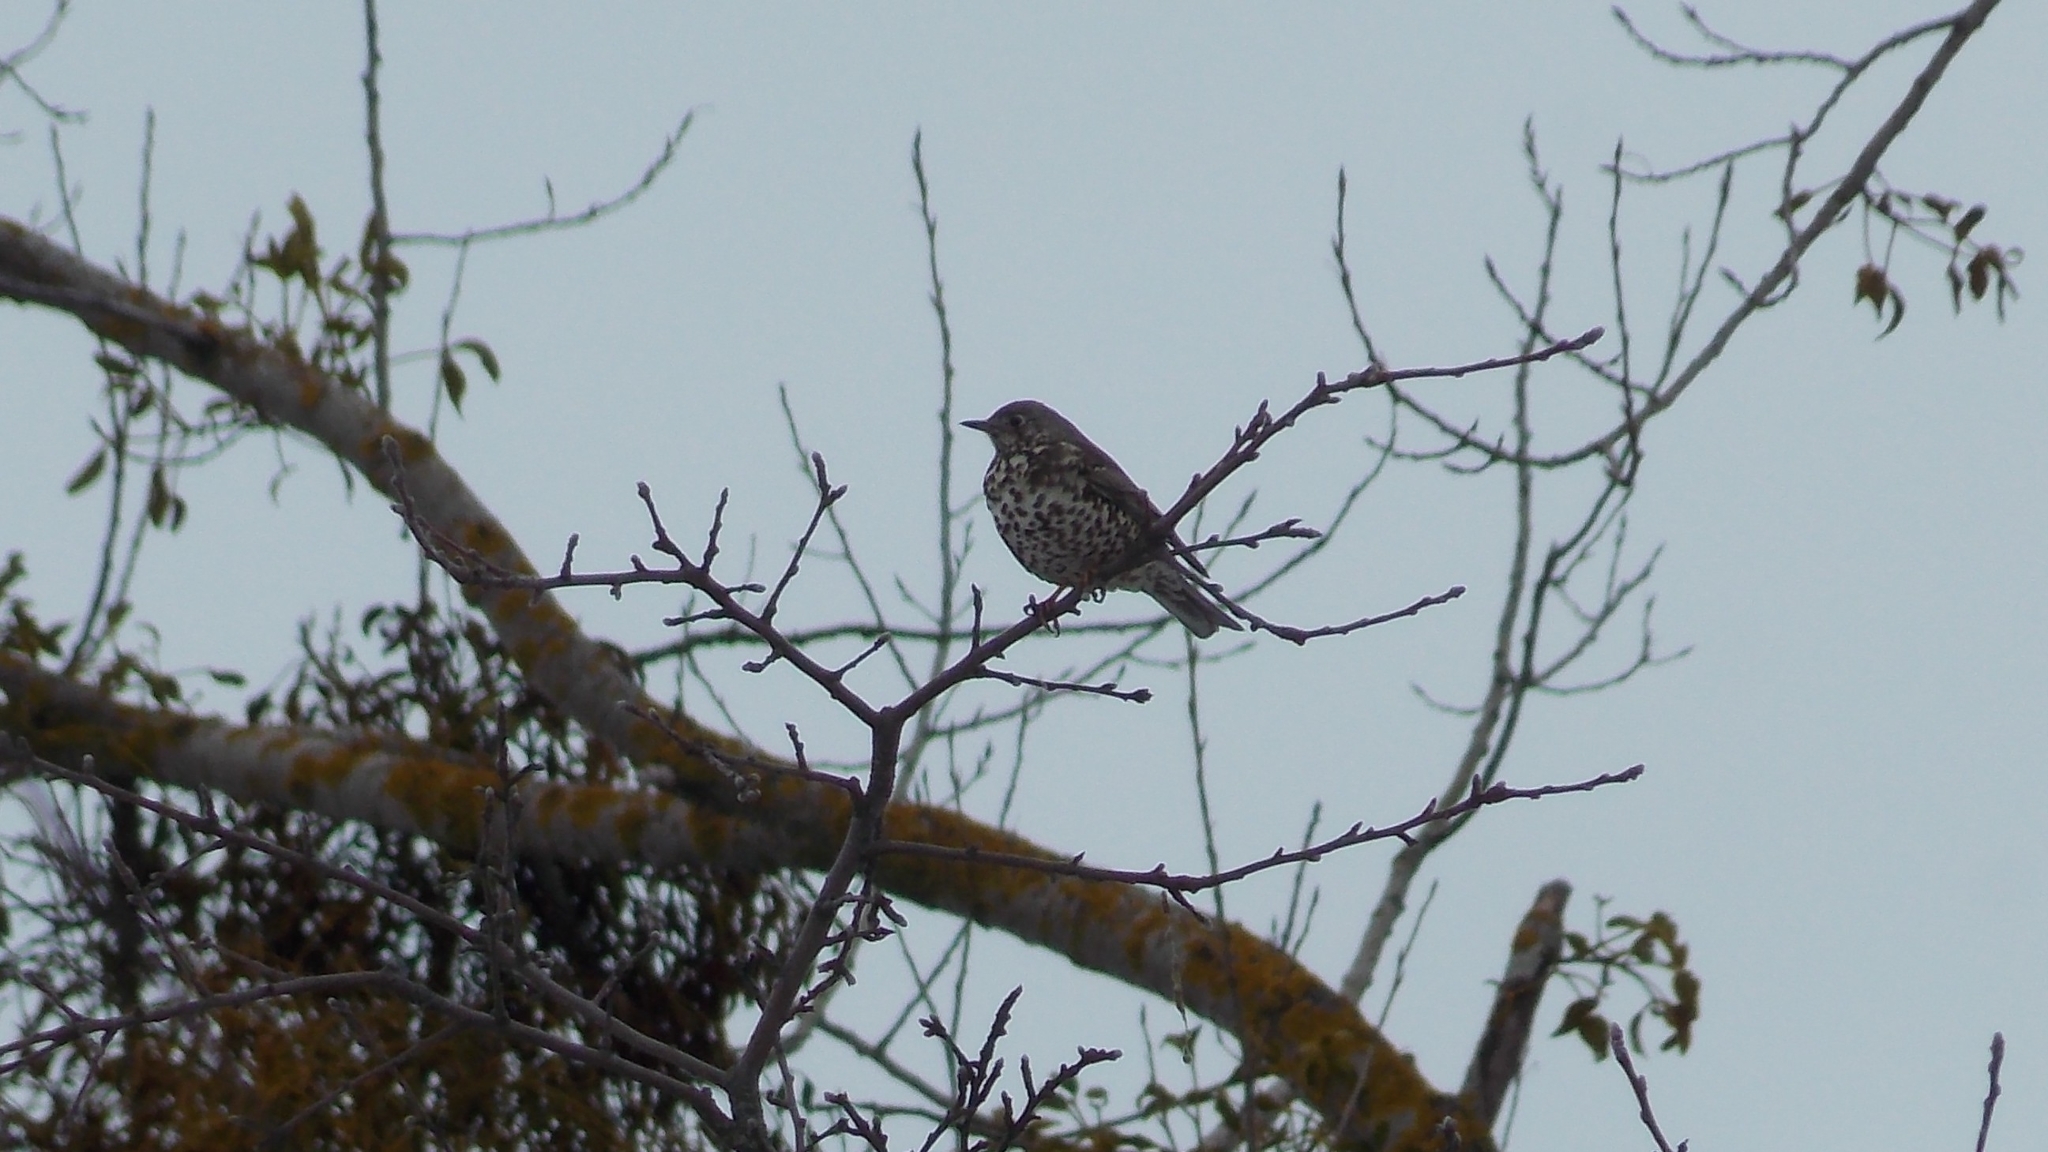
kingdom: Animalia
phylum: Chordata
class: Aves
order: Passeriformes
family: Turdidae
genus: Turdus
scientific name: Turdus viscivorus
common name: Mistle thrush
